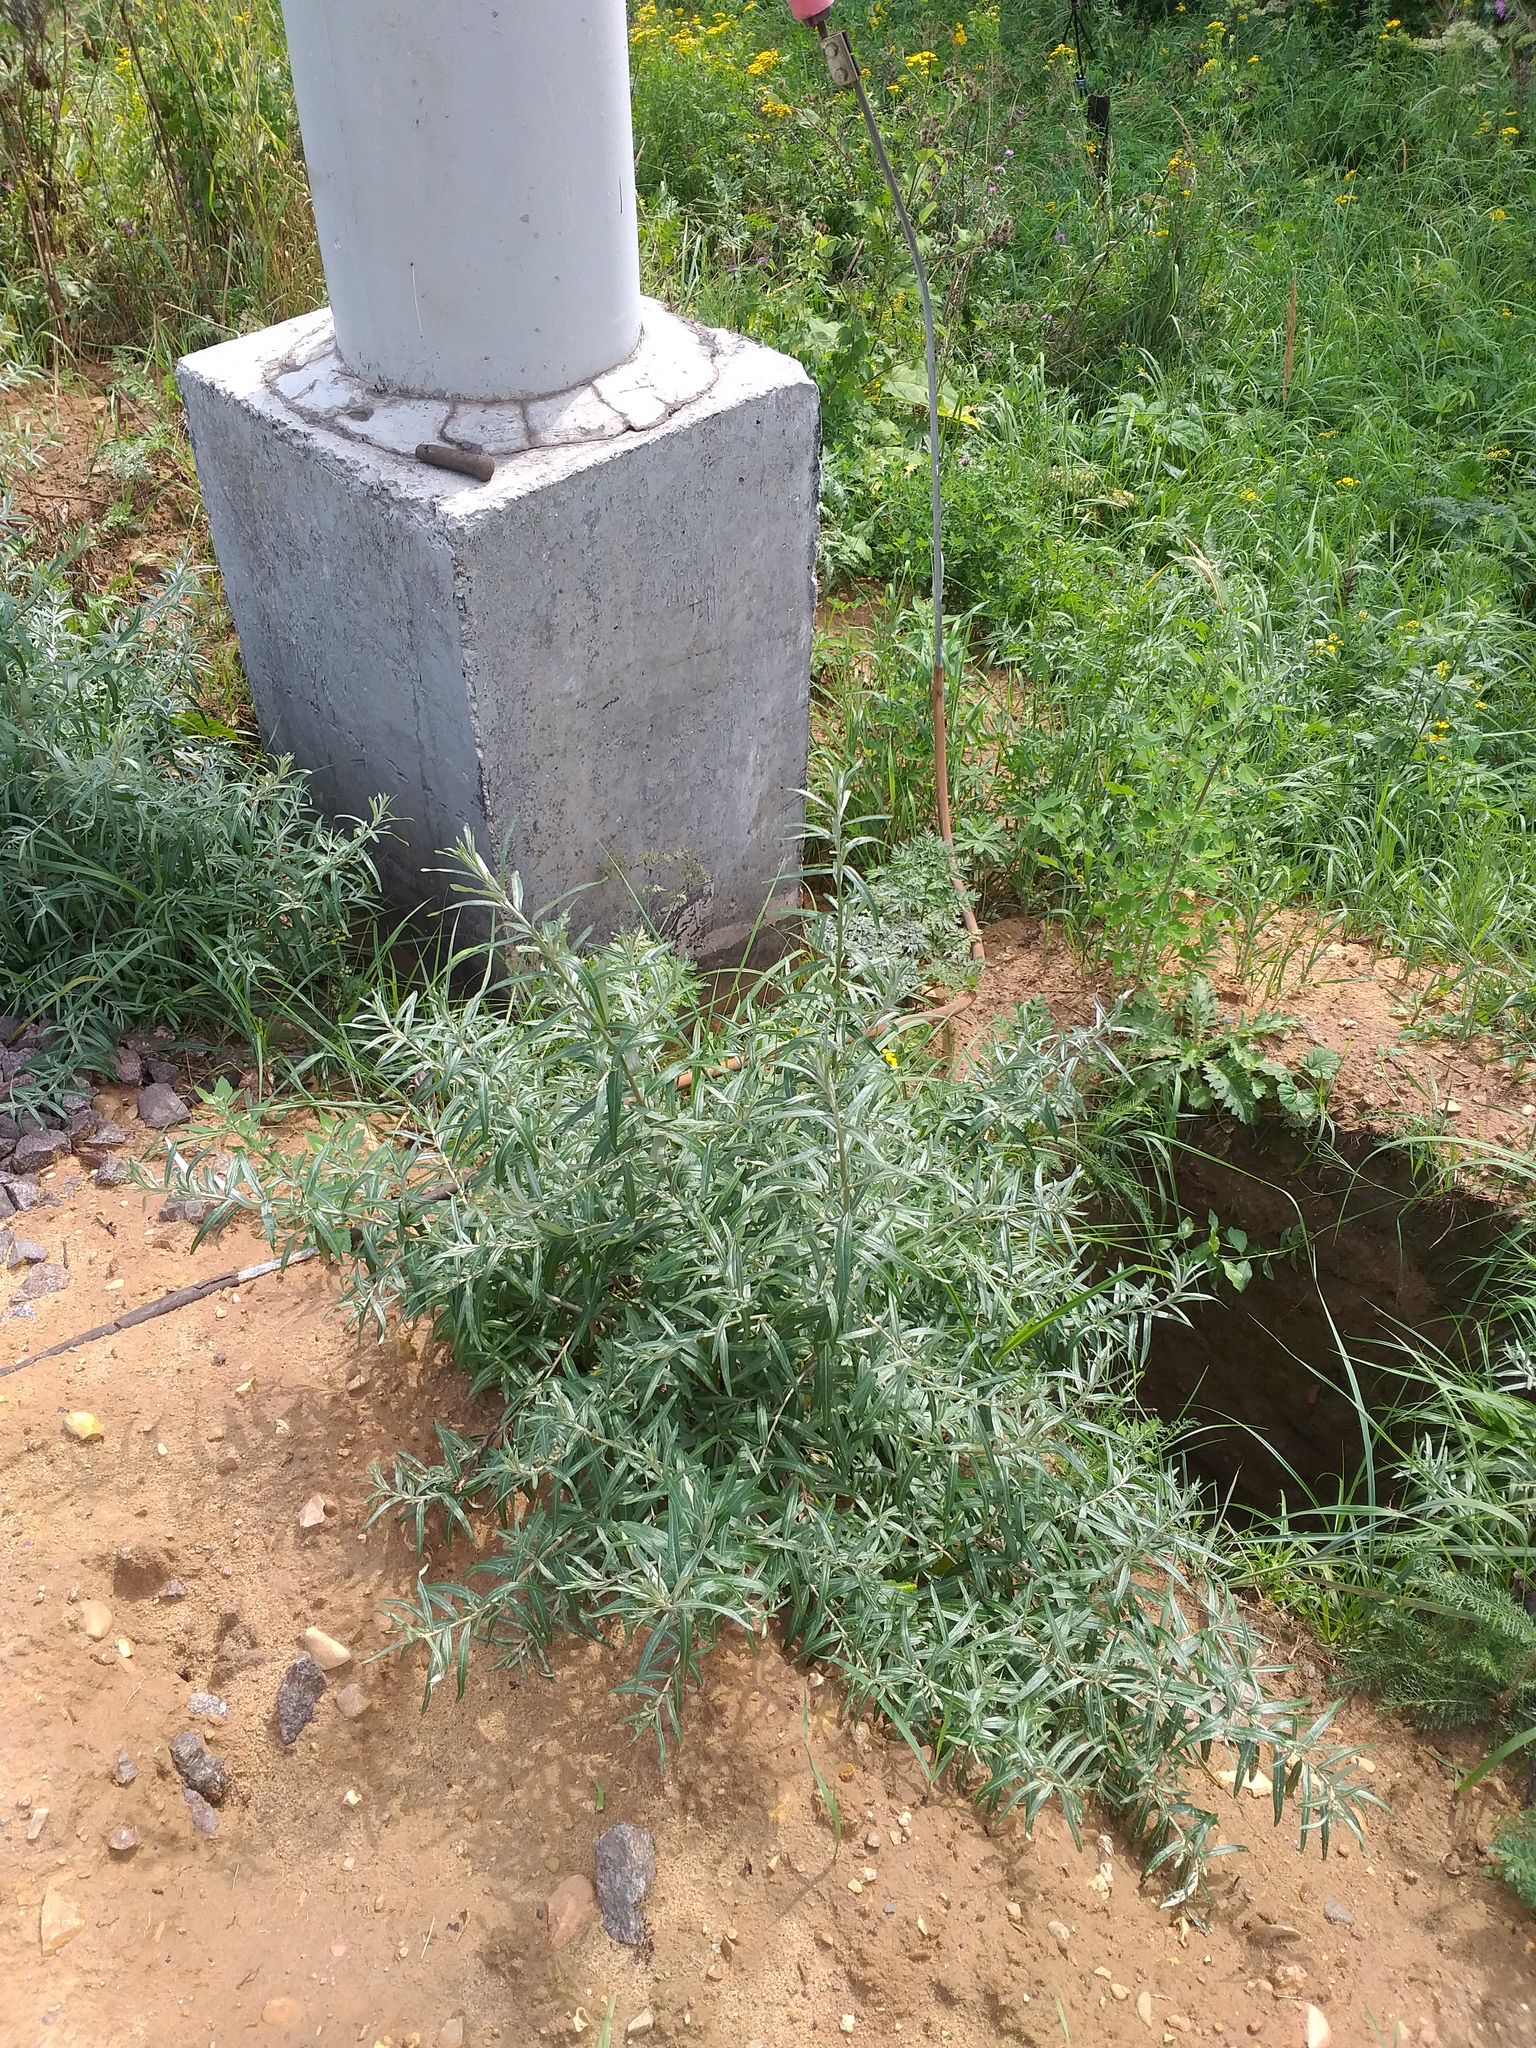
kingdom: Plantae
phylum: Tracheophyta
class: Magnoliopsida
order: Rosales
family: Elaeagnaceae
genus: Hippophae
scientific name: Hippophae rhamnoides
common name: Sea-buckthorn
